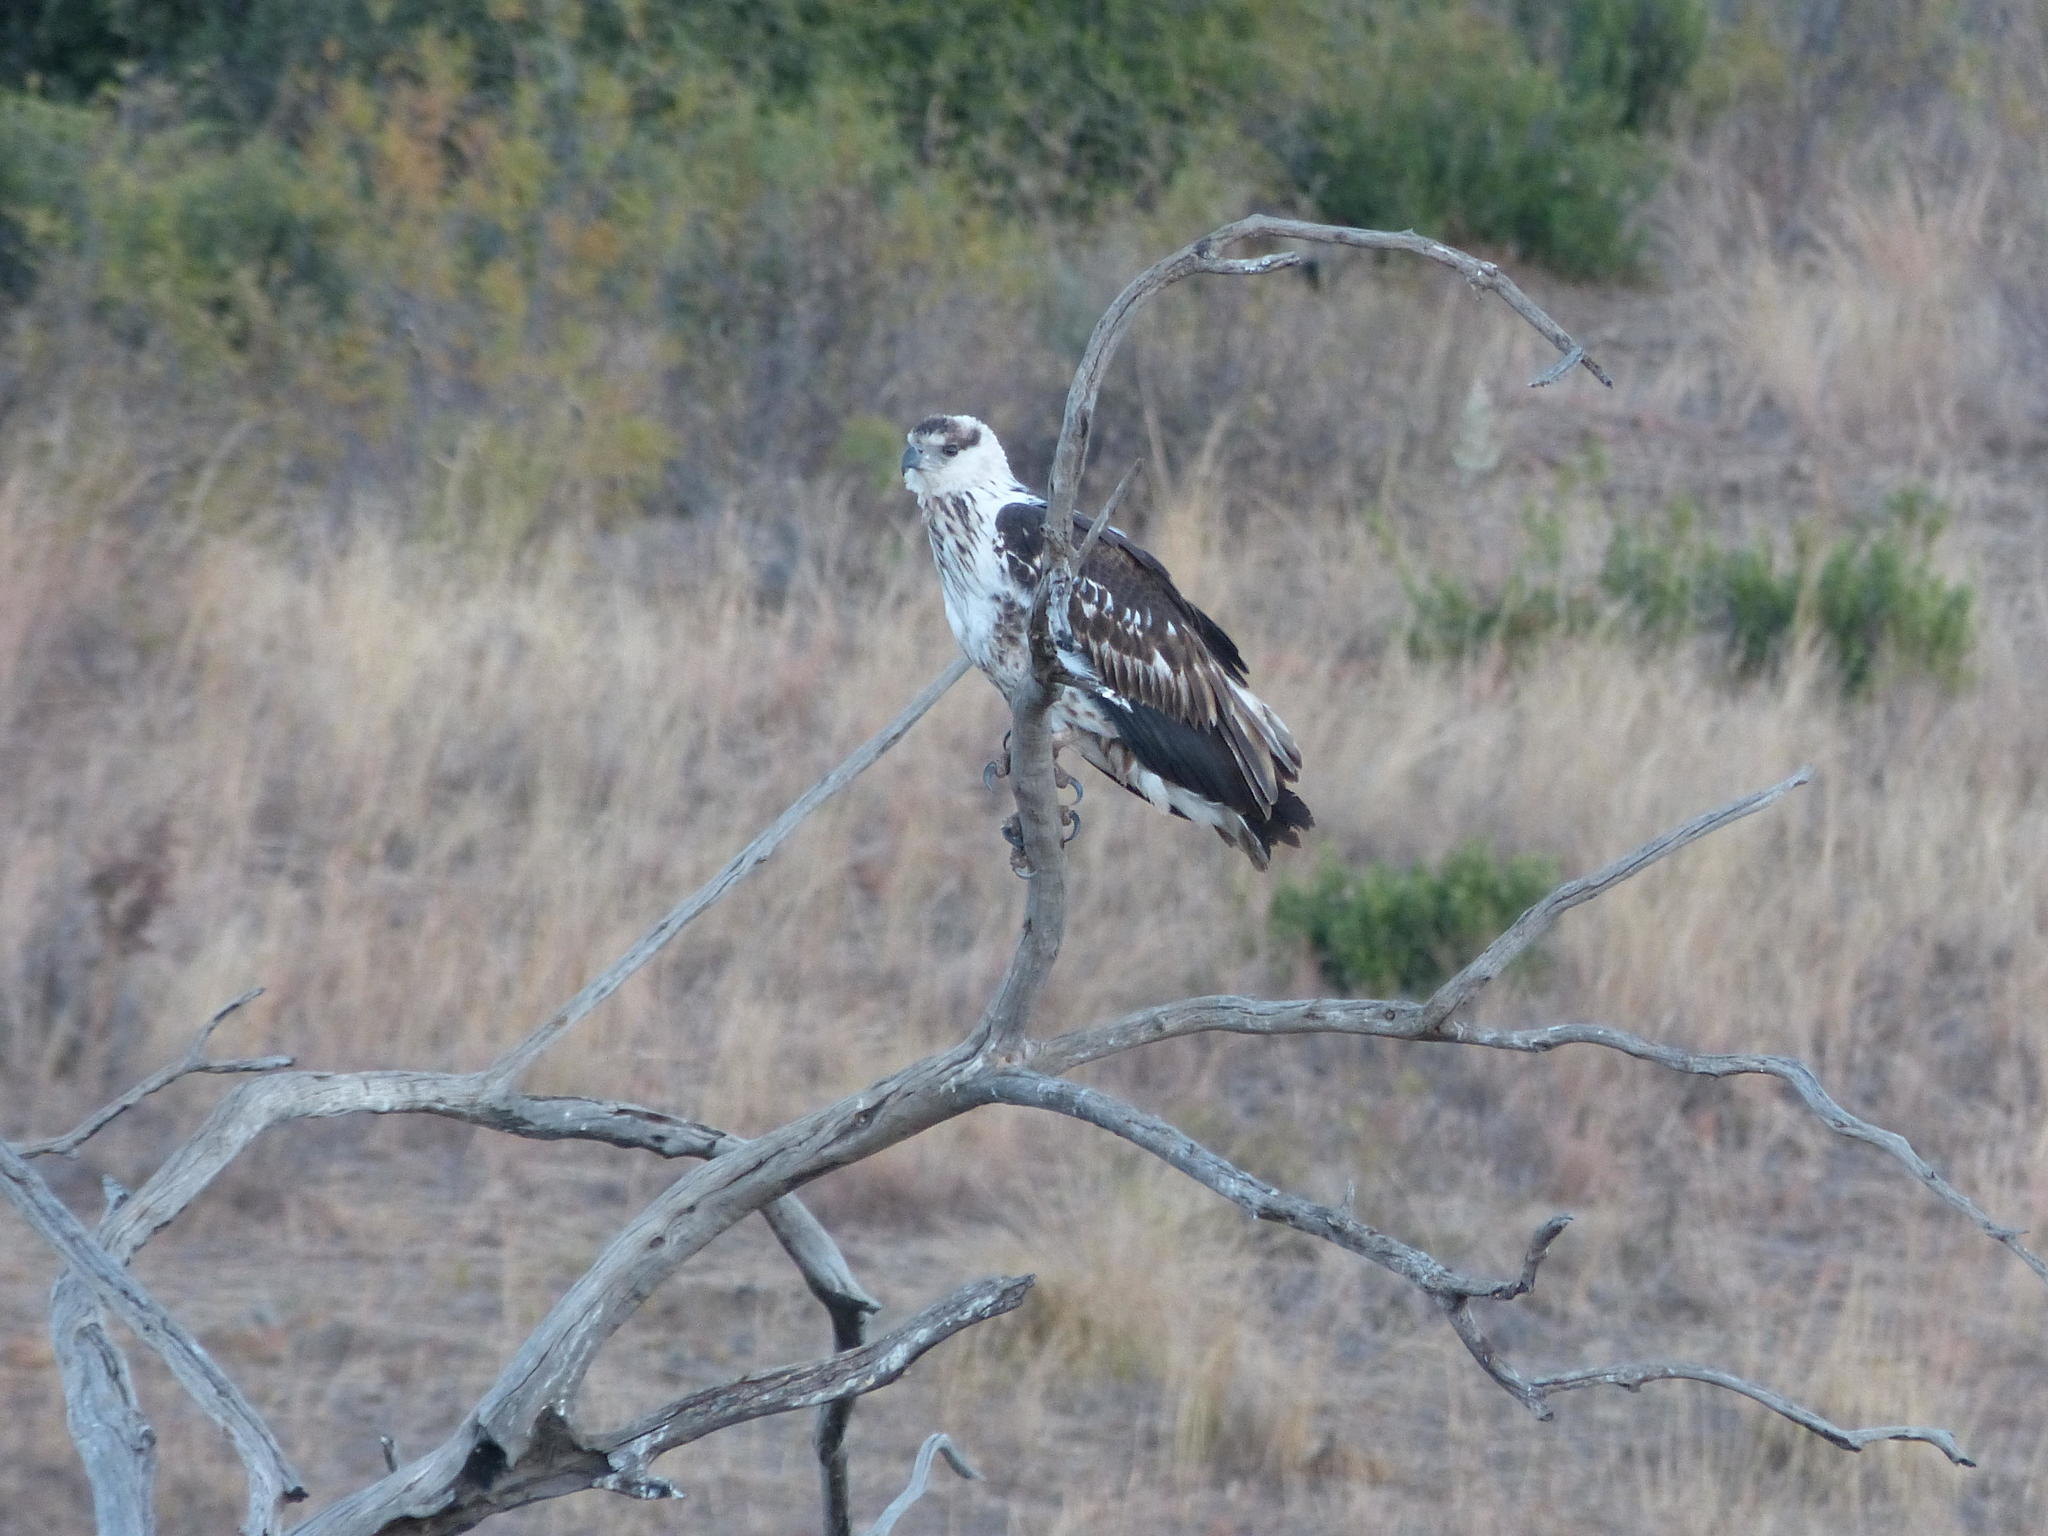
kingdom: Animalia
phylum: Chordata
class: Aves
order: Accipitriformes
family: Accipitridae
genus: Haliaeetus
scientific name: Haliaeetus vocifer
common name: African fish eagle
